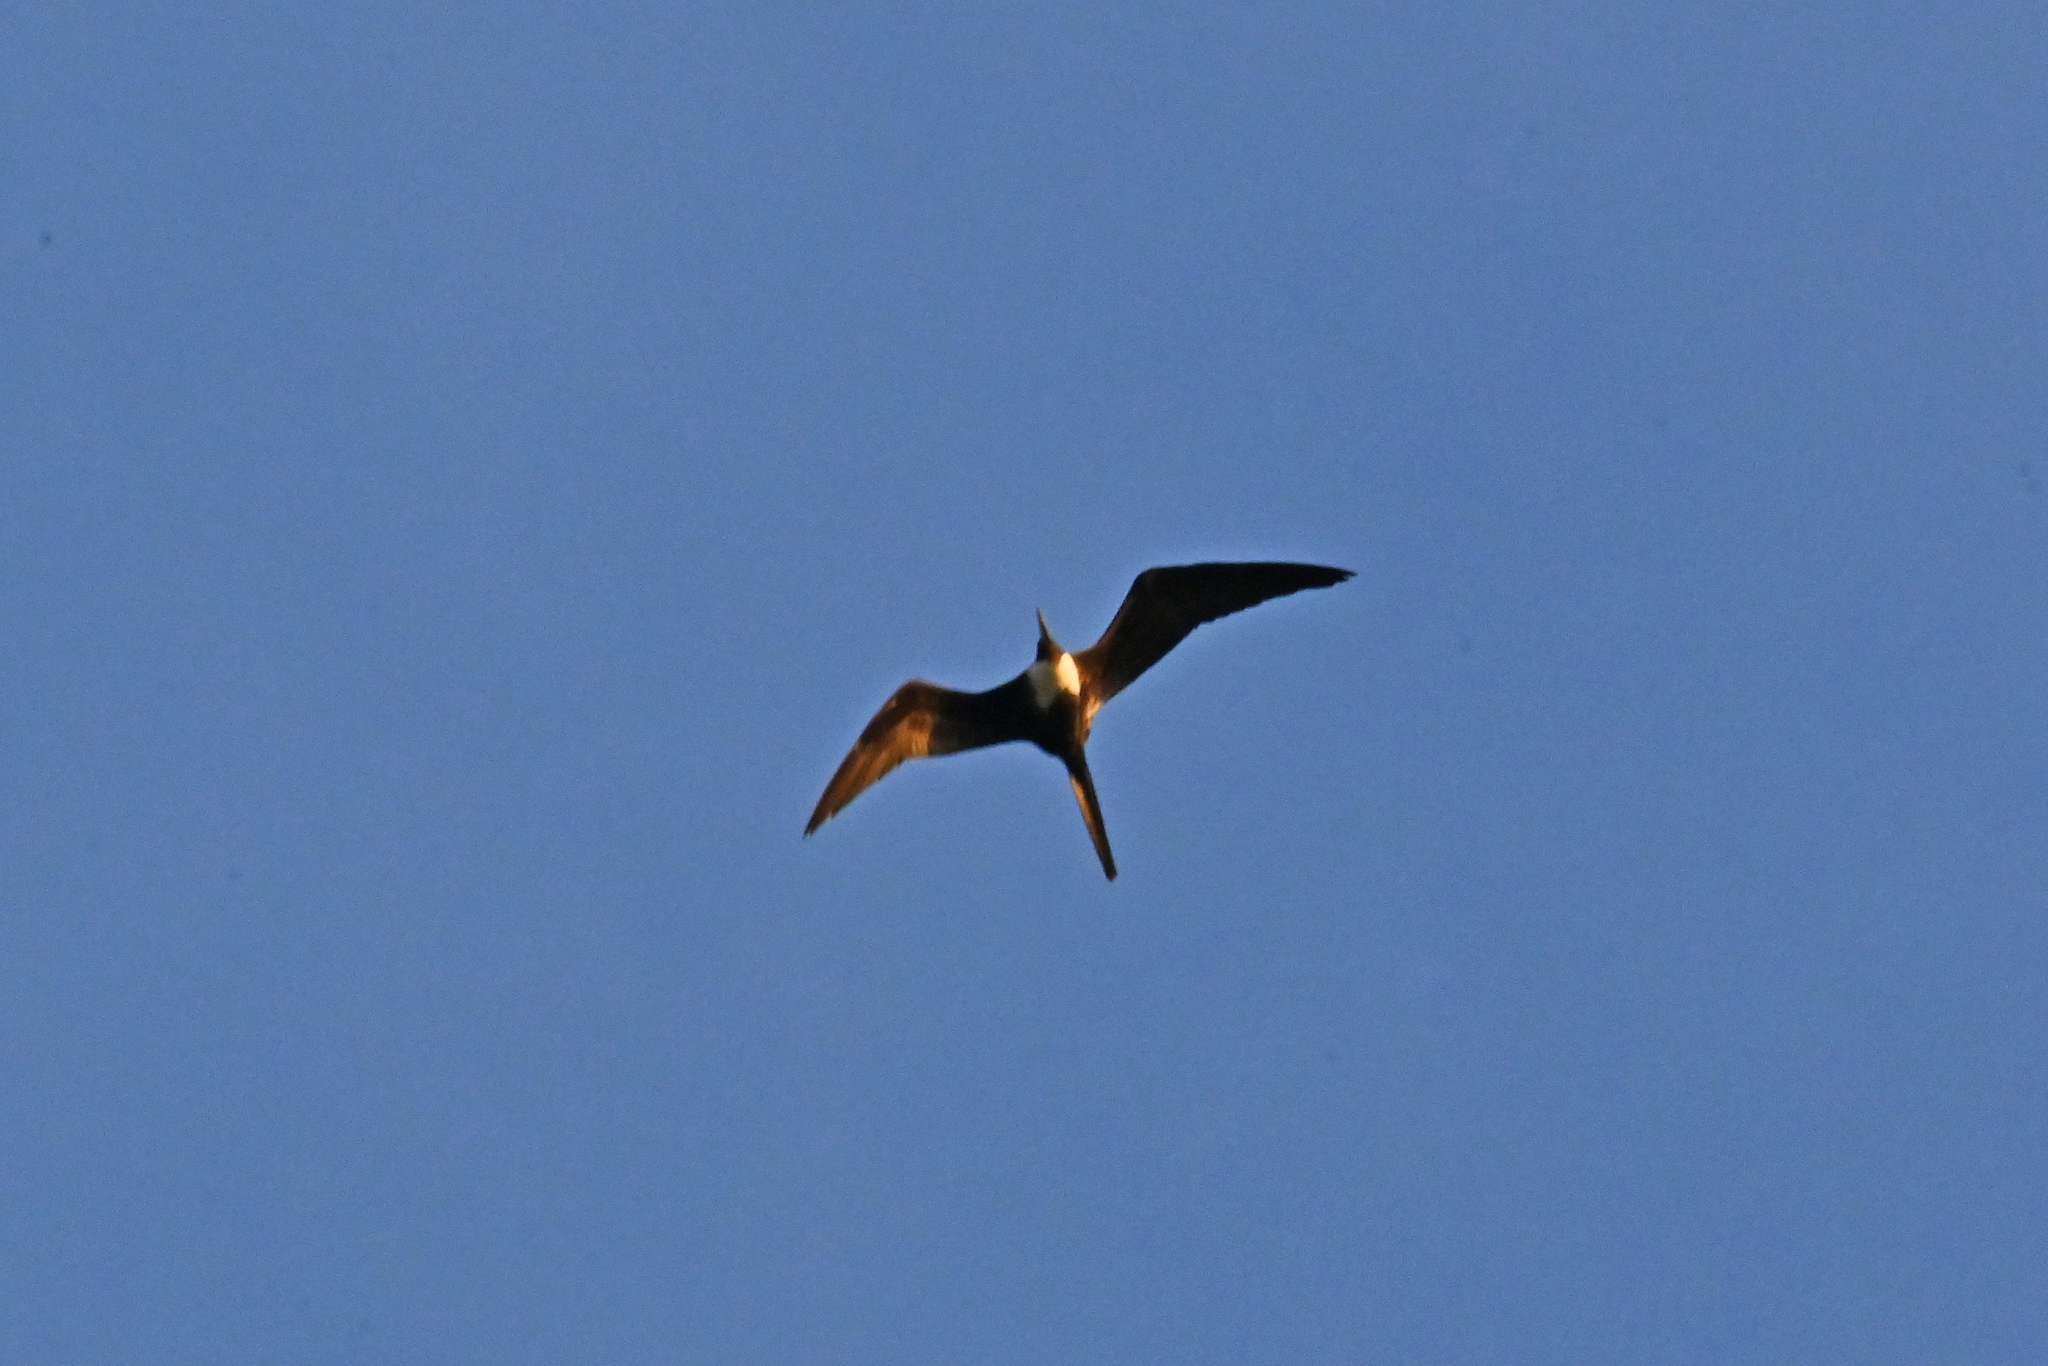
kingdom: Animalia
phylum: Chordata
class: Aves
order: Suliformes
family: Fregatidae
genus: Fregata
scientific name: Fregata magnificens
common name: Magnificent frigatebird
